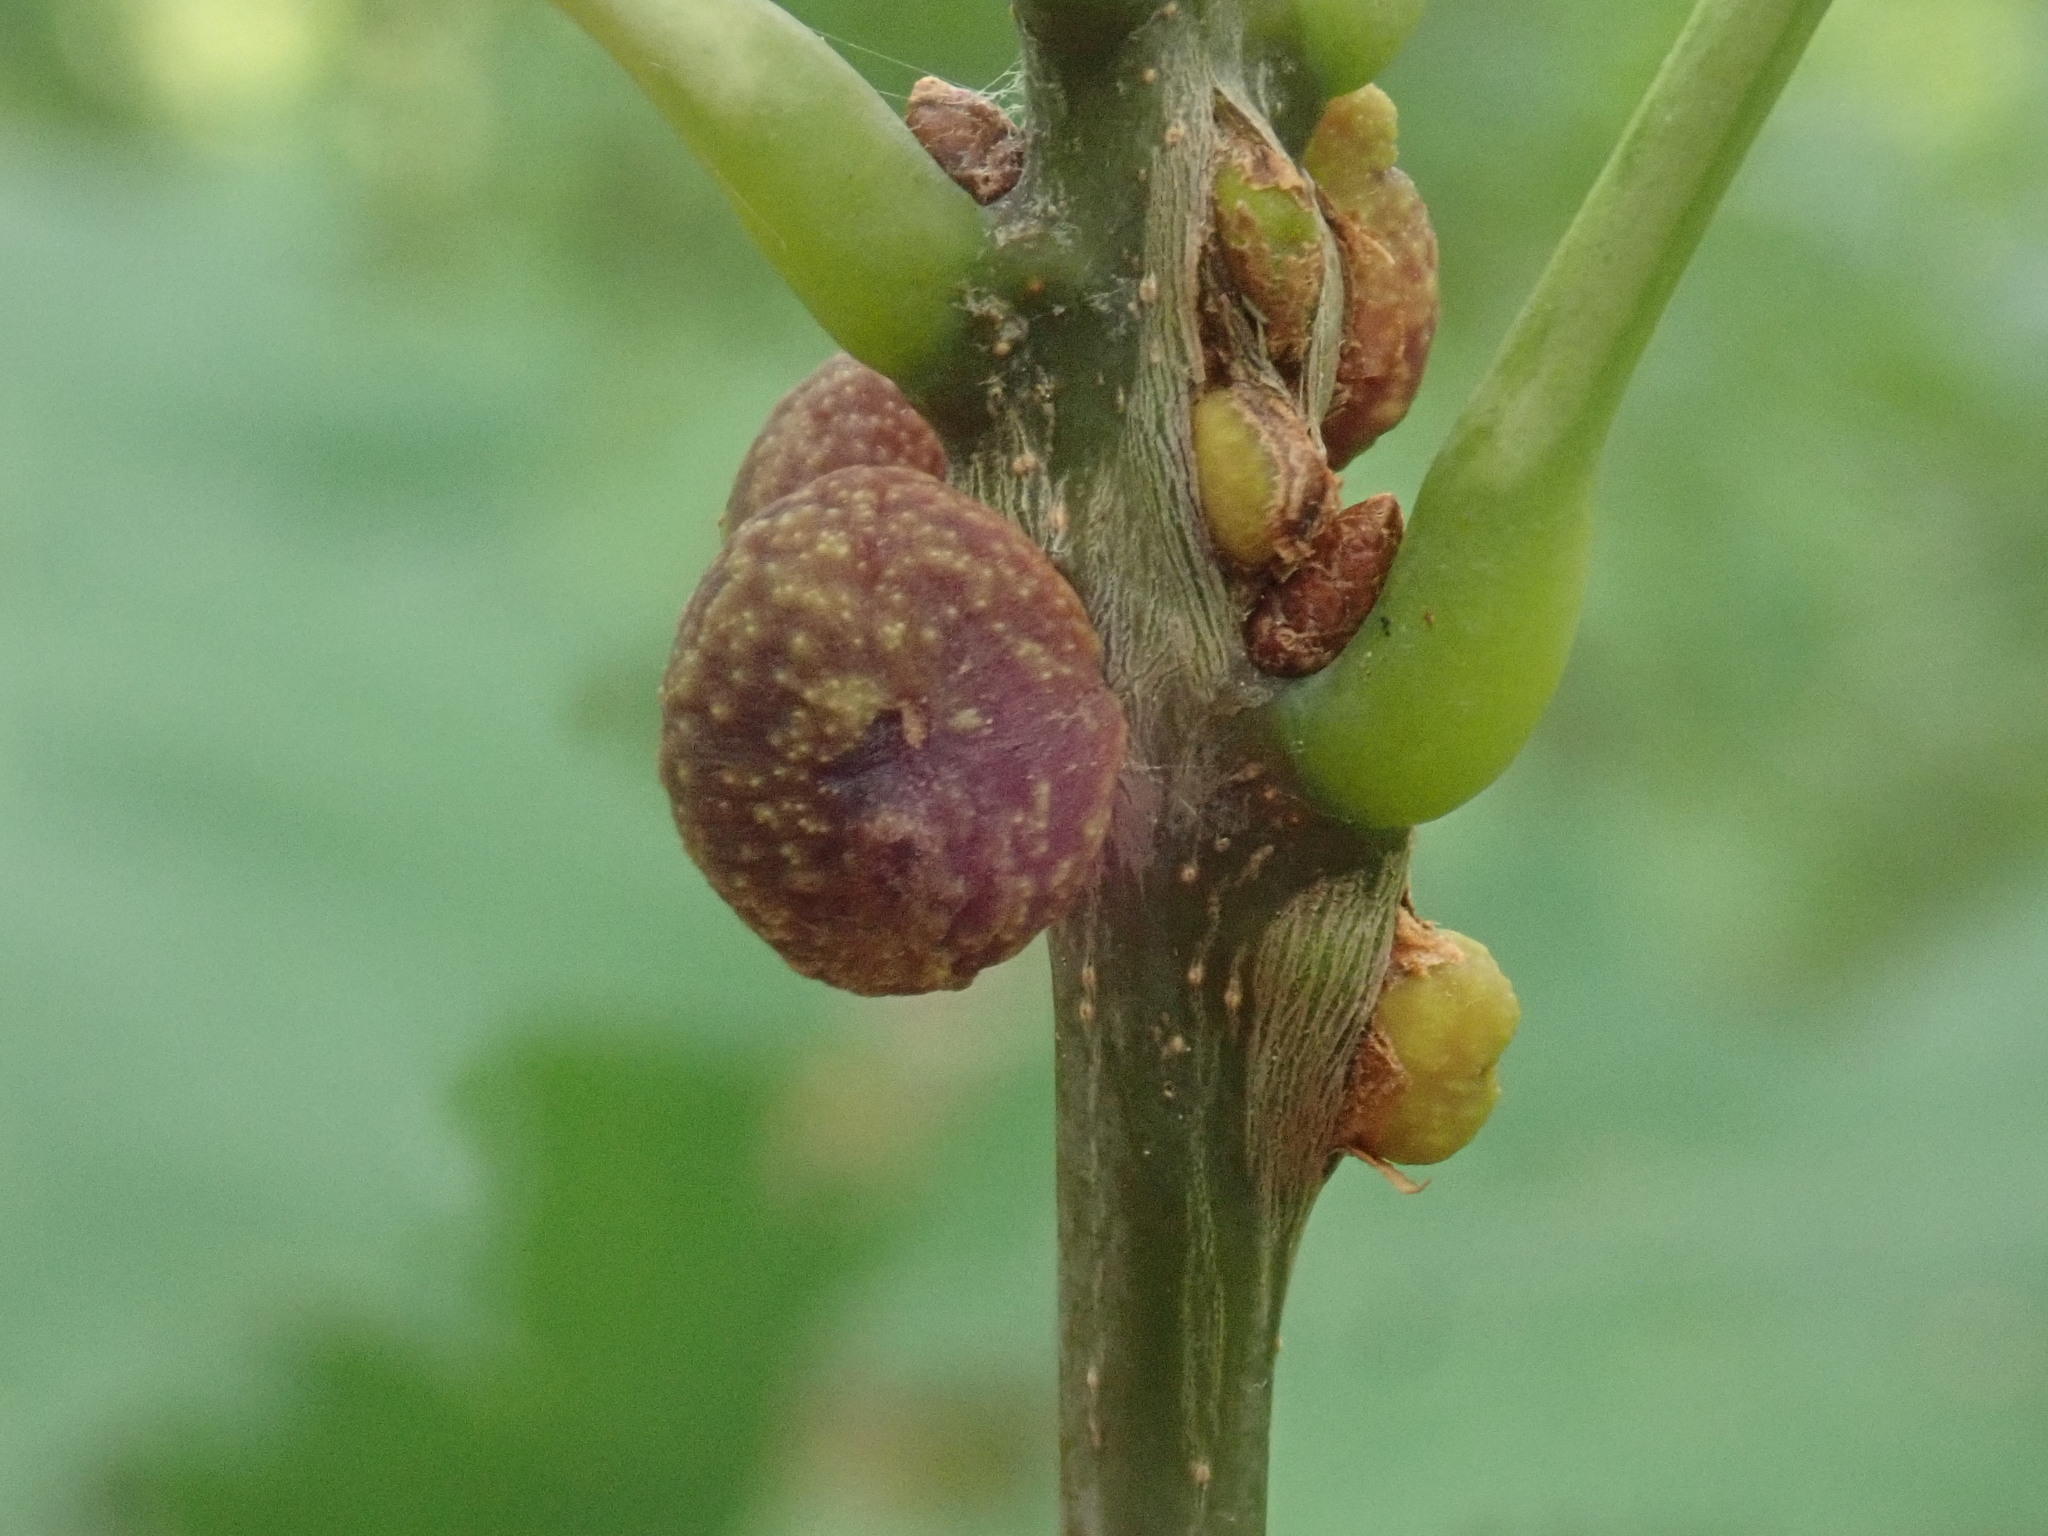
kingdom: Animalia
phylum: Arthropoda
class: Insecta
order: Hymenoptera
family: Cynipidae
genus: Kokkocynips
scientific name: Kokkocynips imbricariae
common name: Banded bullet gall wasp
